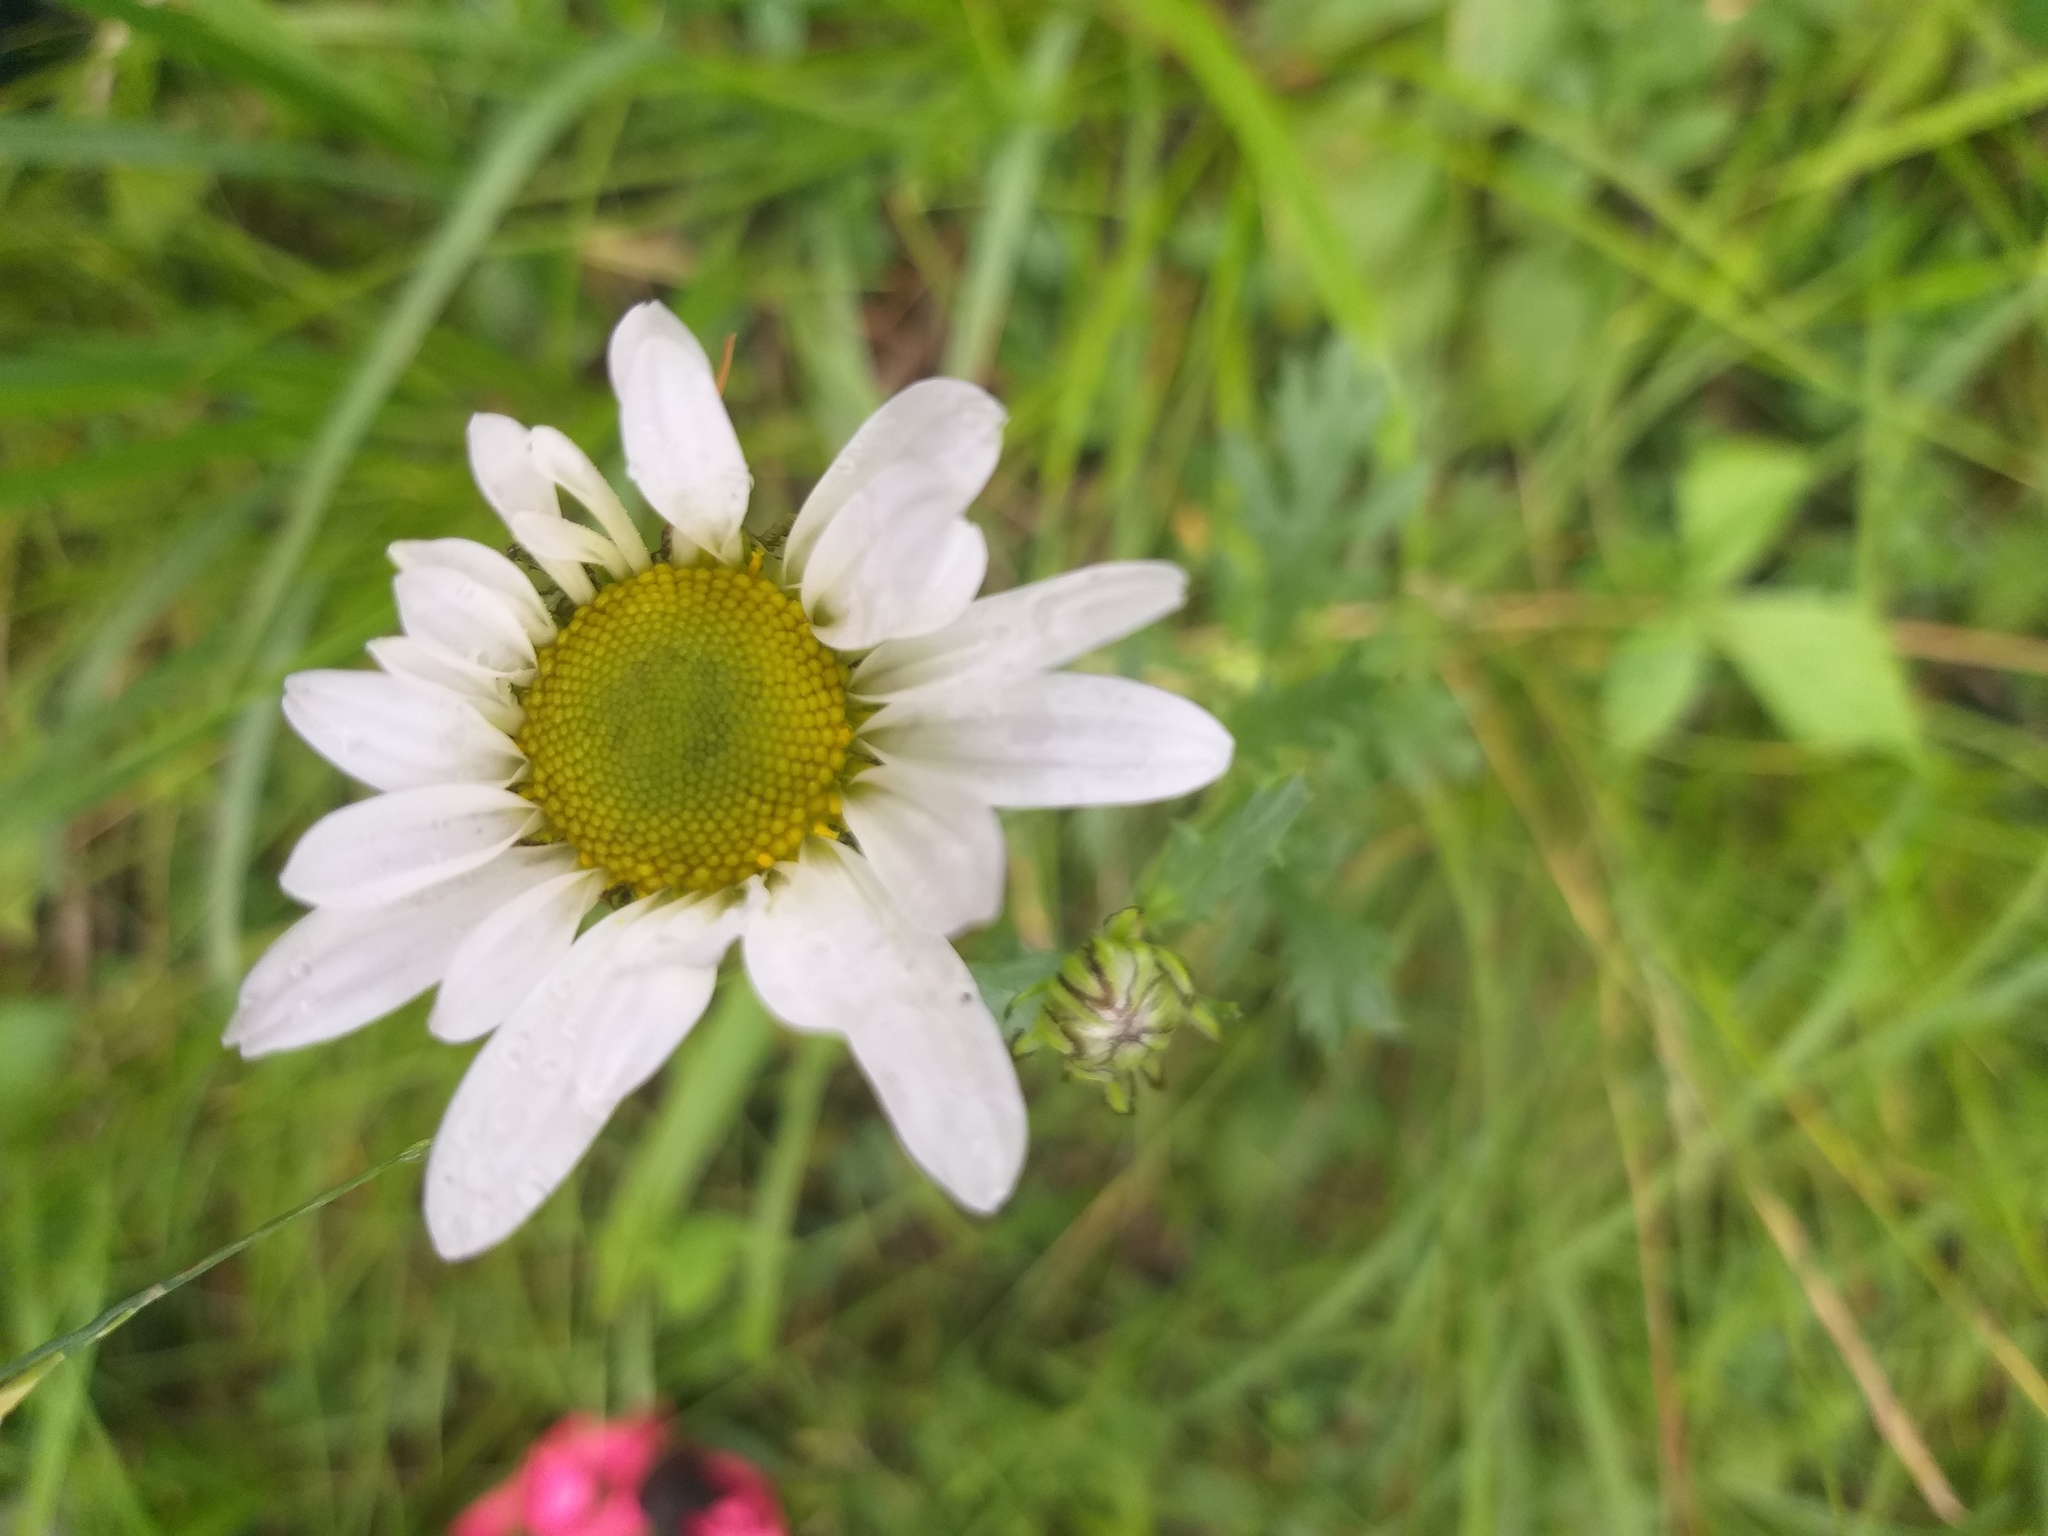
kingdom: Plantae
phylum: Tracheophyta
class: Magnoliopsida
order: Asterales
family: Asteraceae
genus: Chrysanthemum
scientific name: Chrysanthemum zawadzkii
